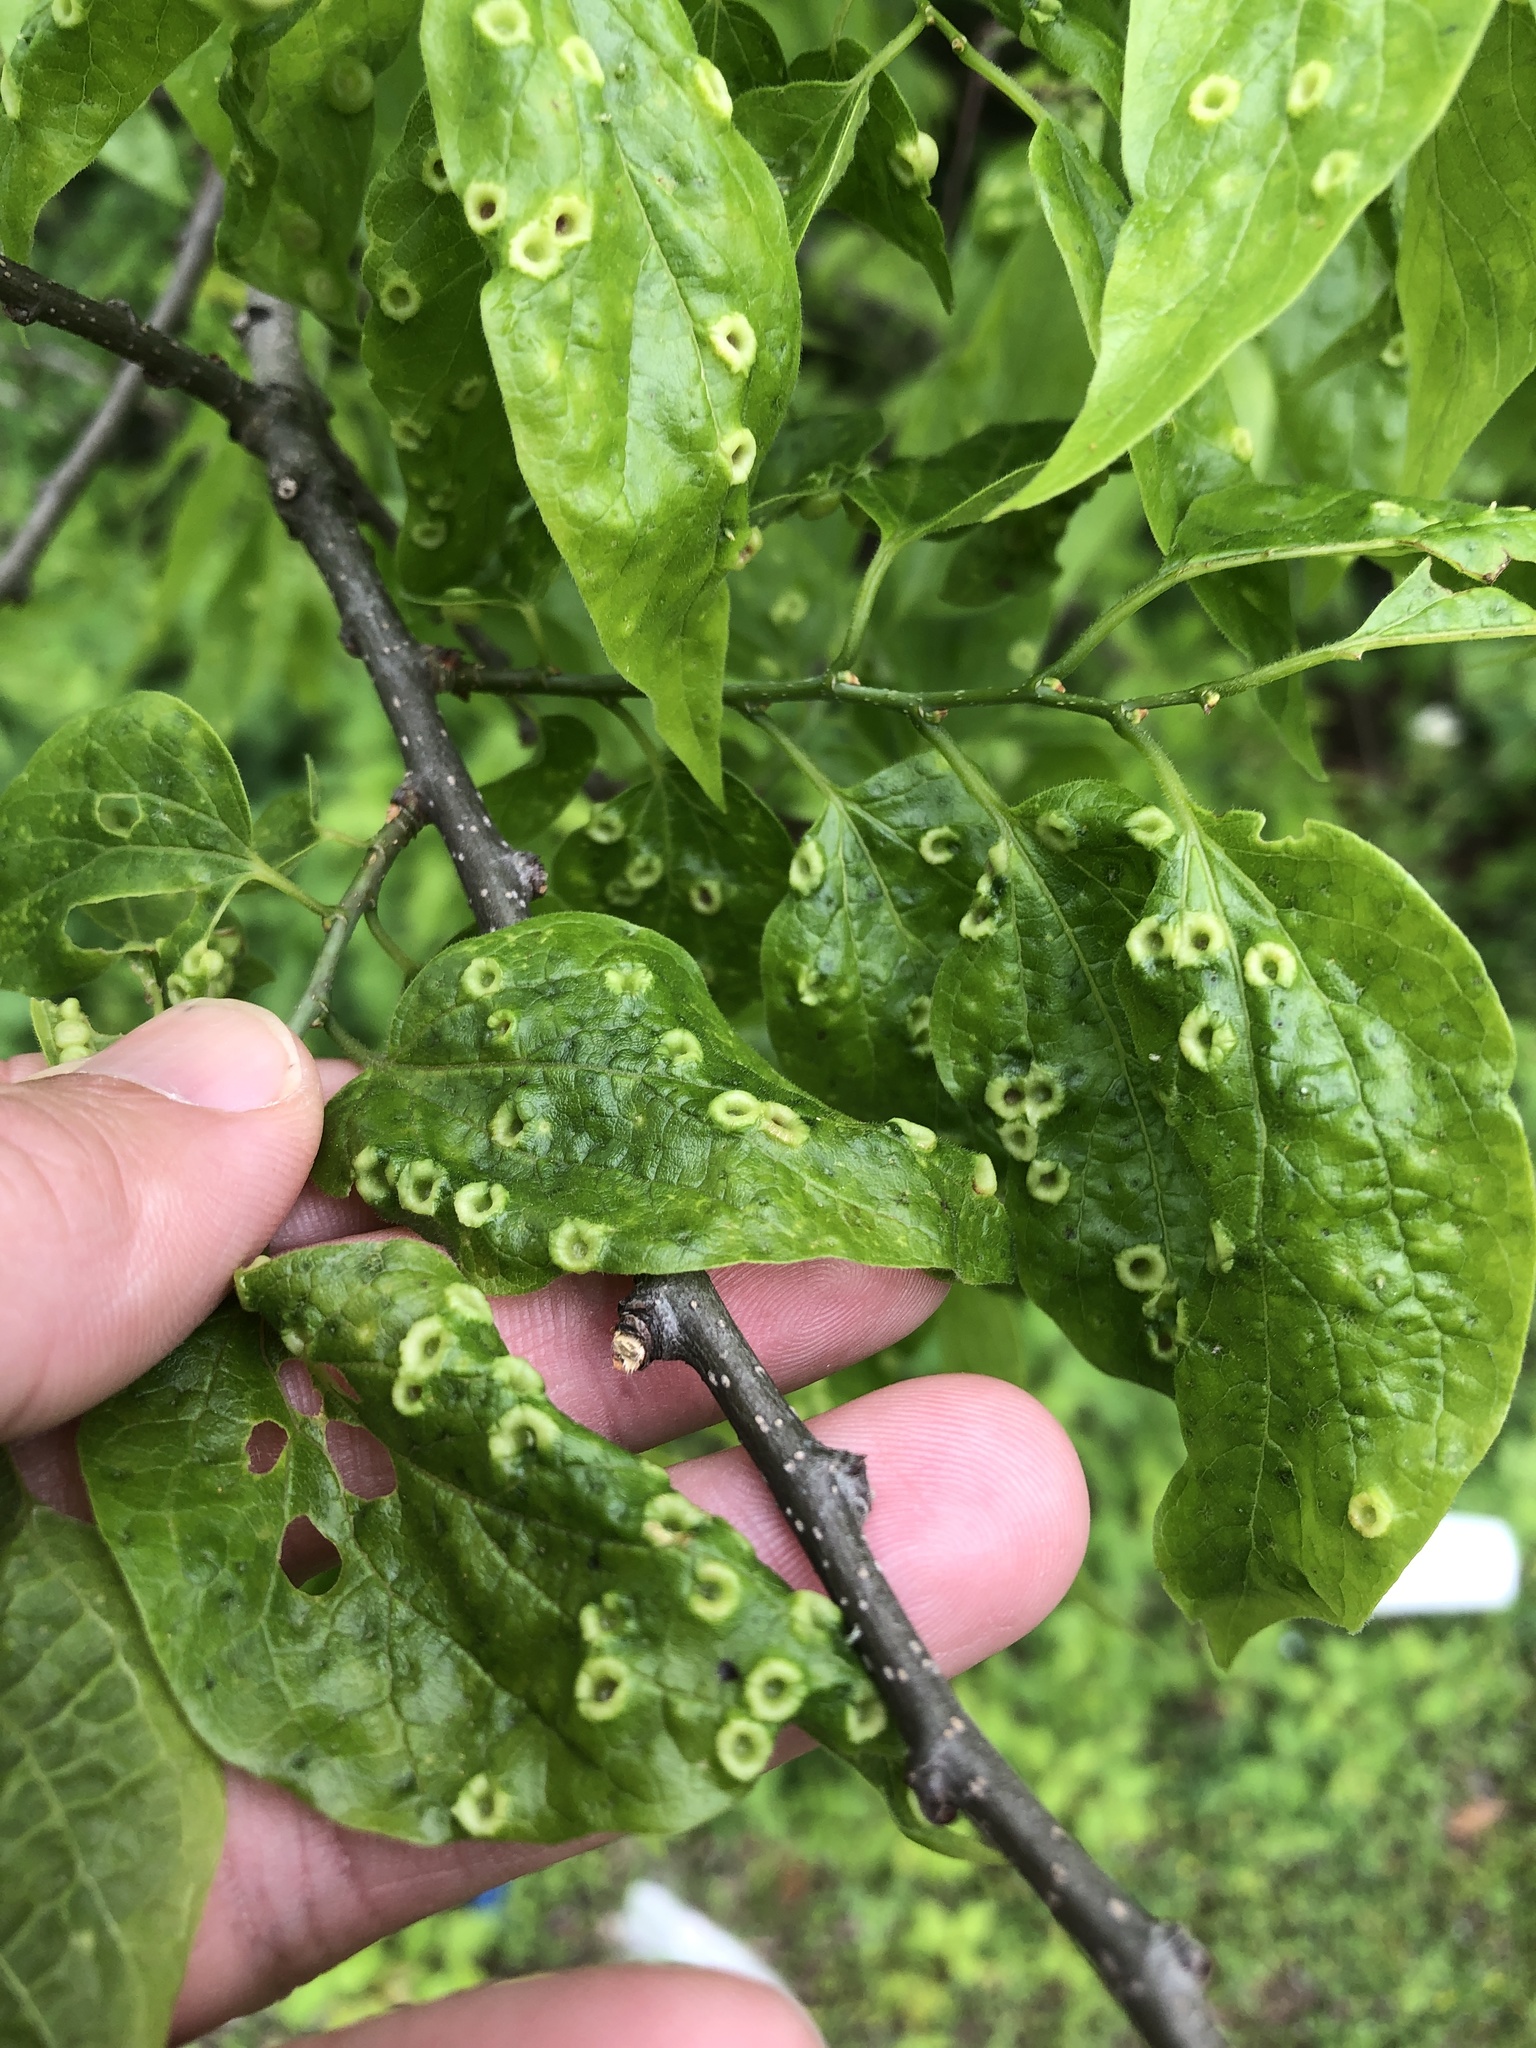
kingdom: Animalia
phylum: Arthropoda
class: Insecta
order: Hemiptera
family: Aphalaridae
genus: Pachypsylla
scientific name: Pachypsylla celtidismamma
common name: Hackberry nipplegall psyllid
